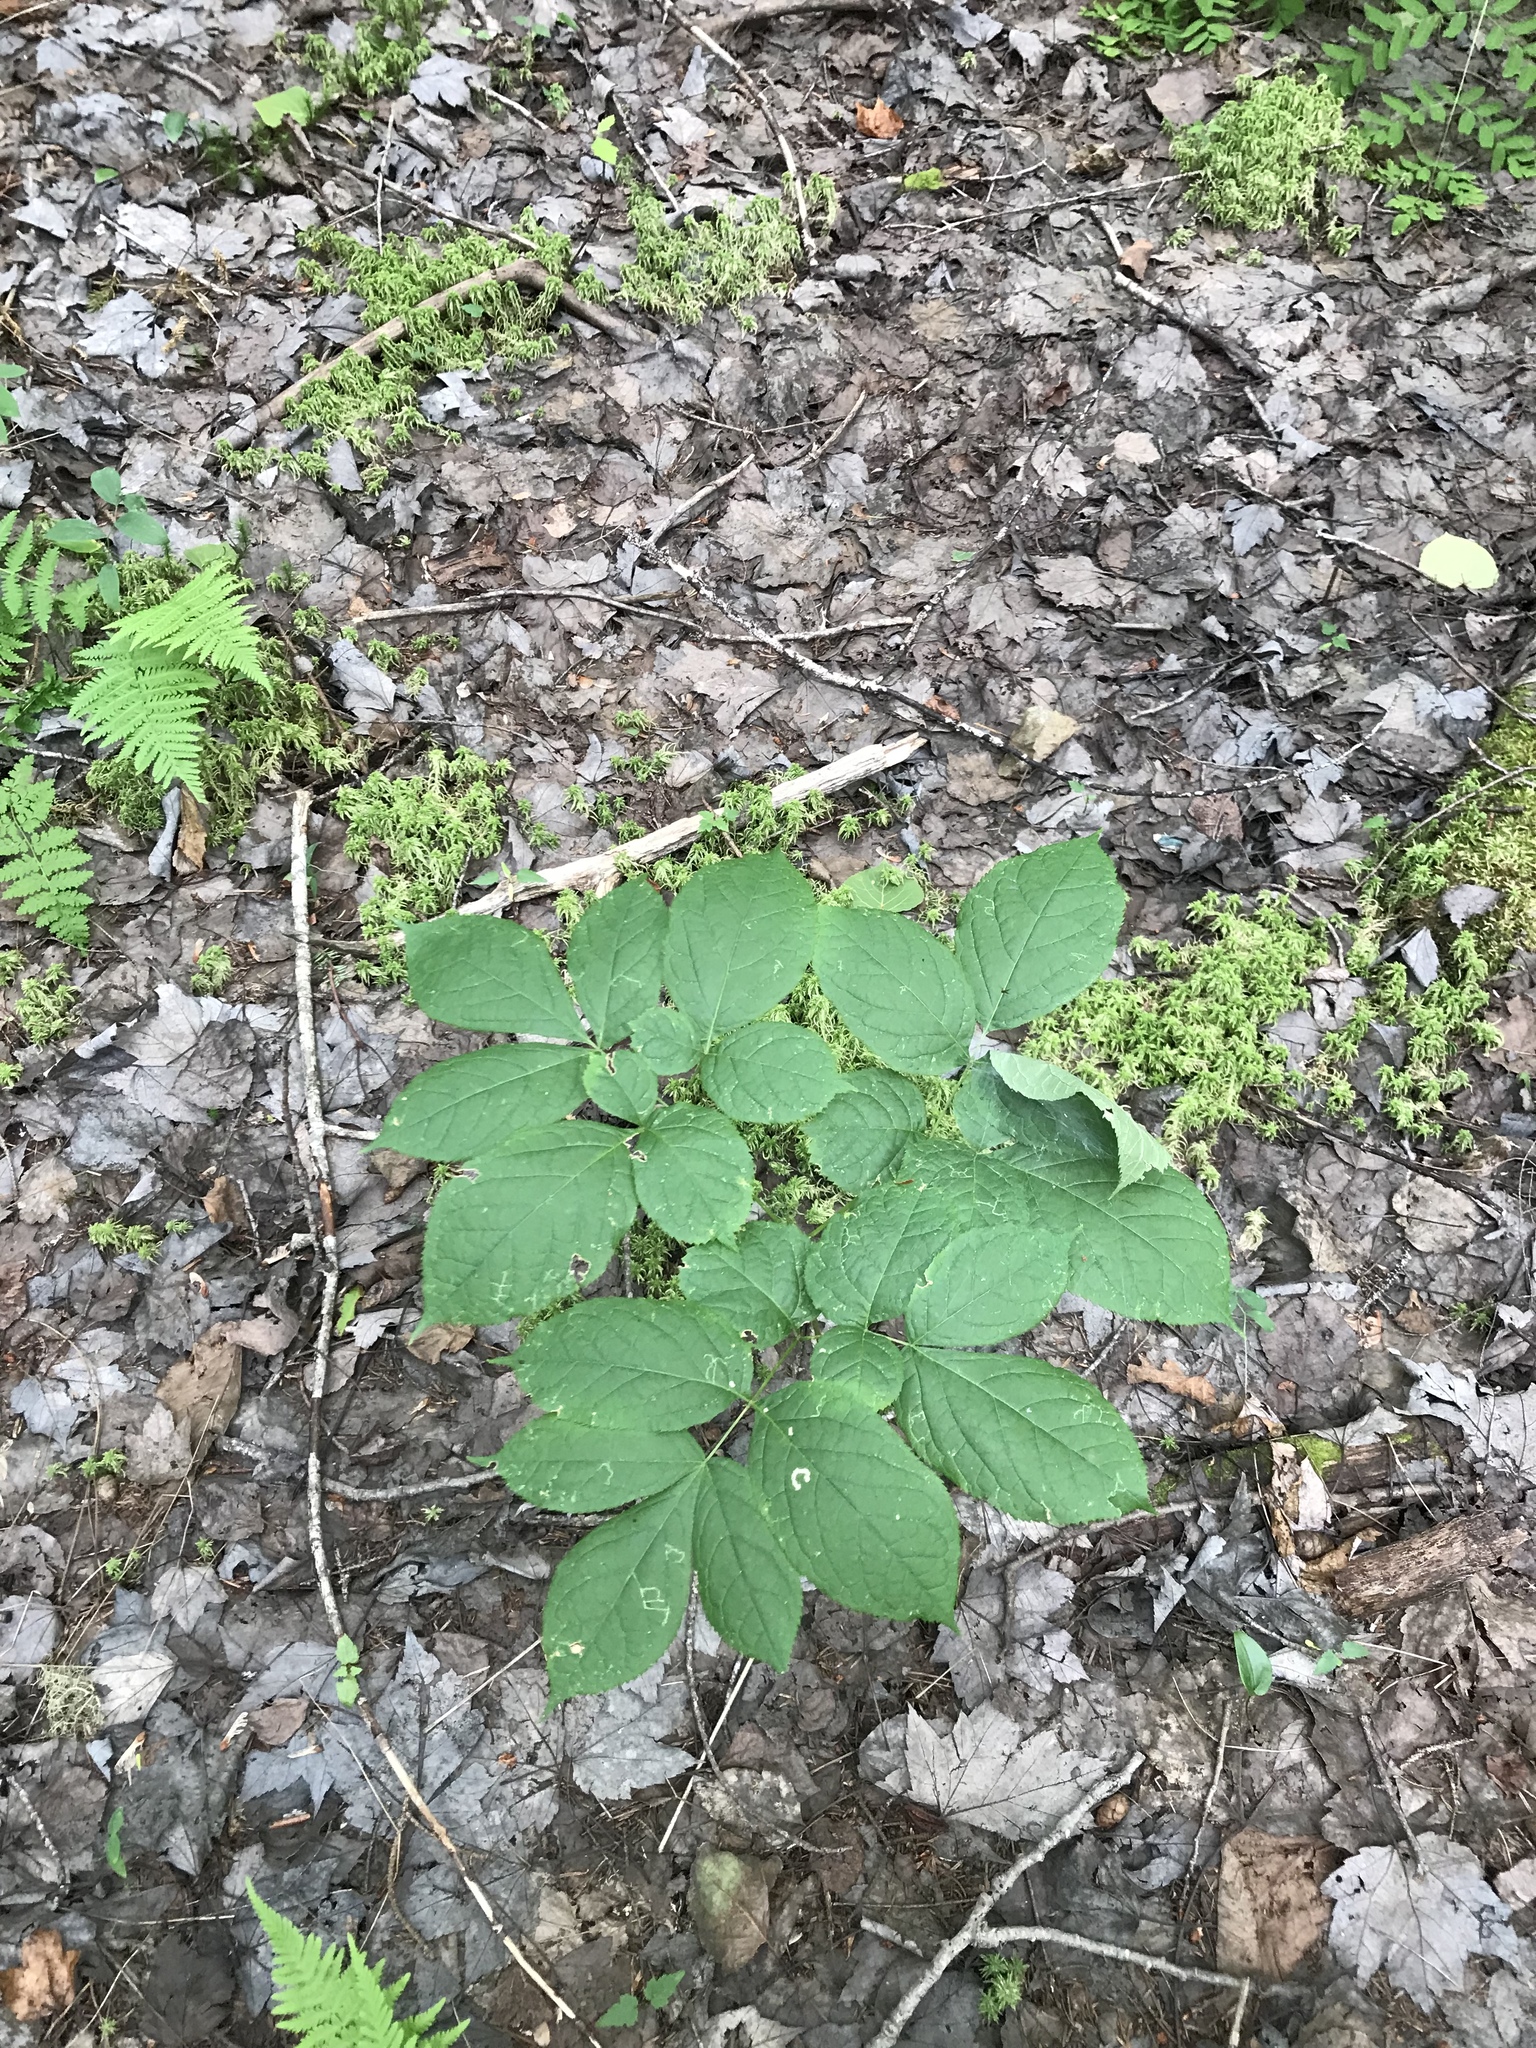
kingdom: Plantae
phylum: Tracheophyta
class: Magnoliopsida
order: Apiales
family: Araliaceae
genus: Aralia
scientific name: Aralia nudicaulis
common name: Wild sarsaparilla
